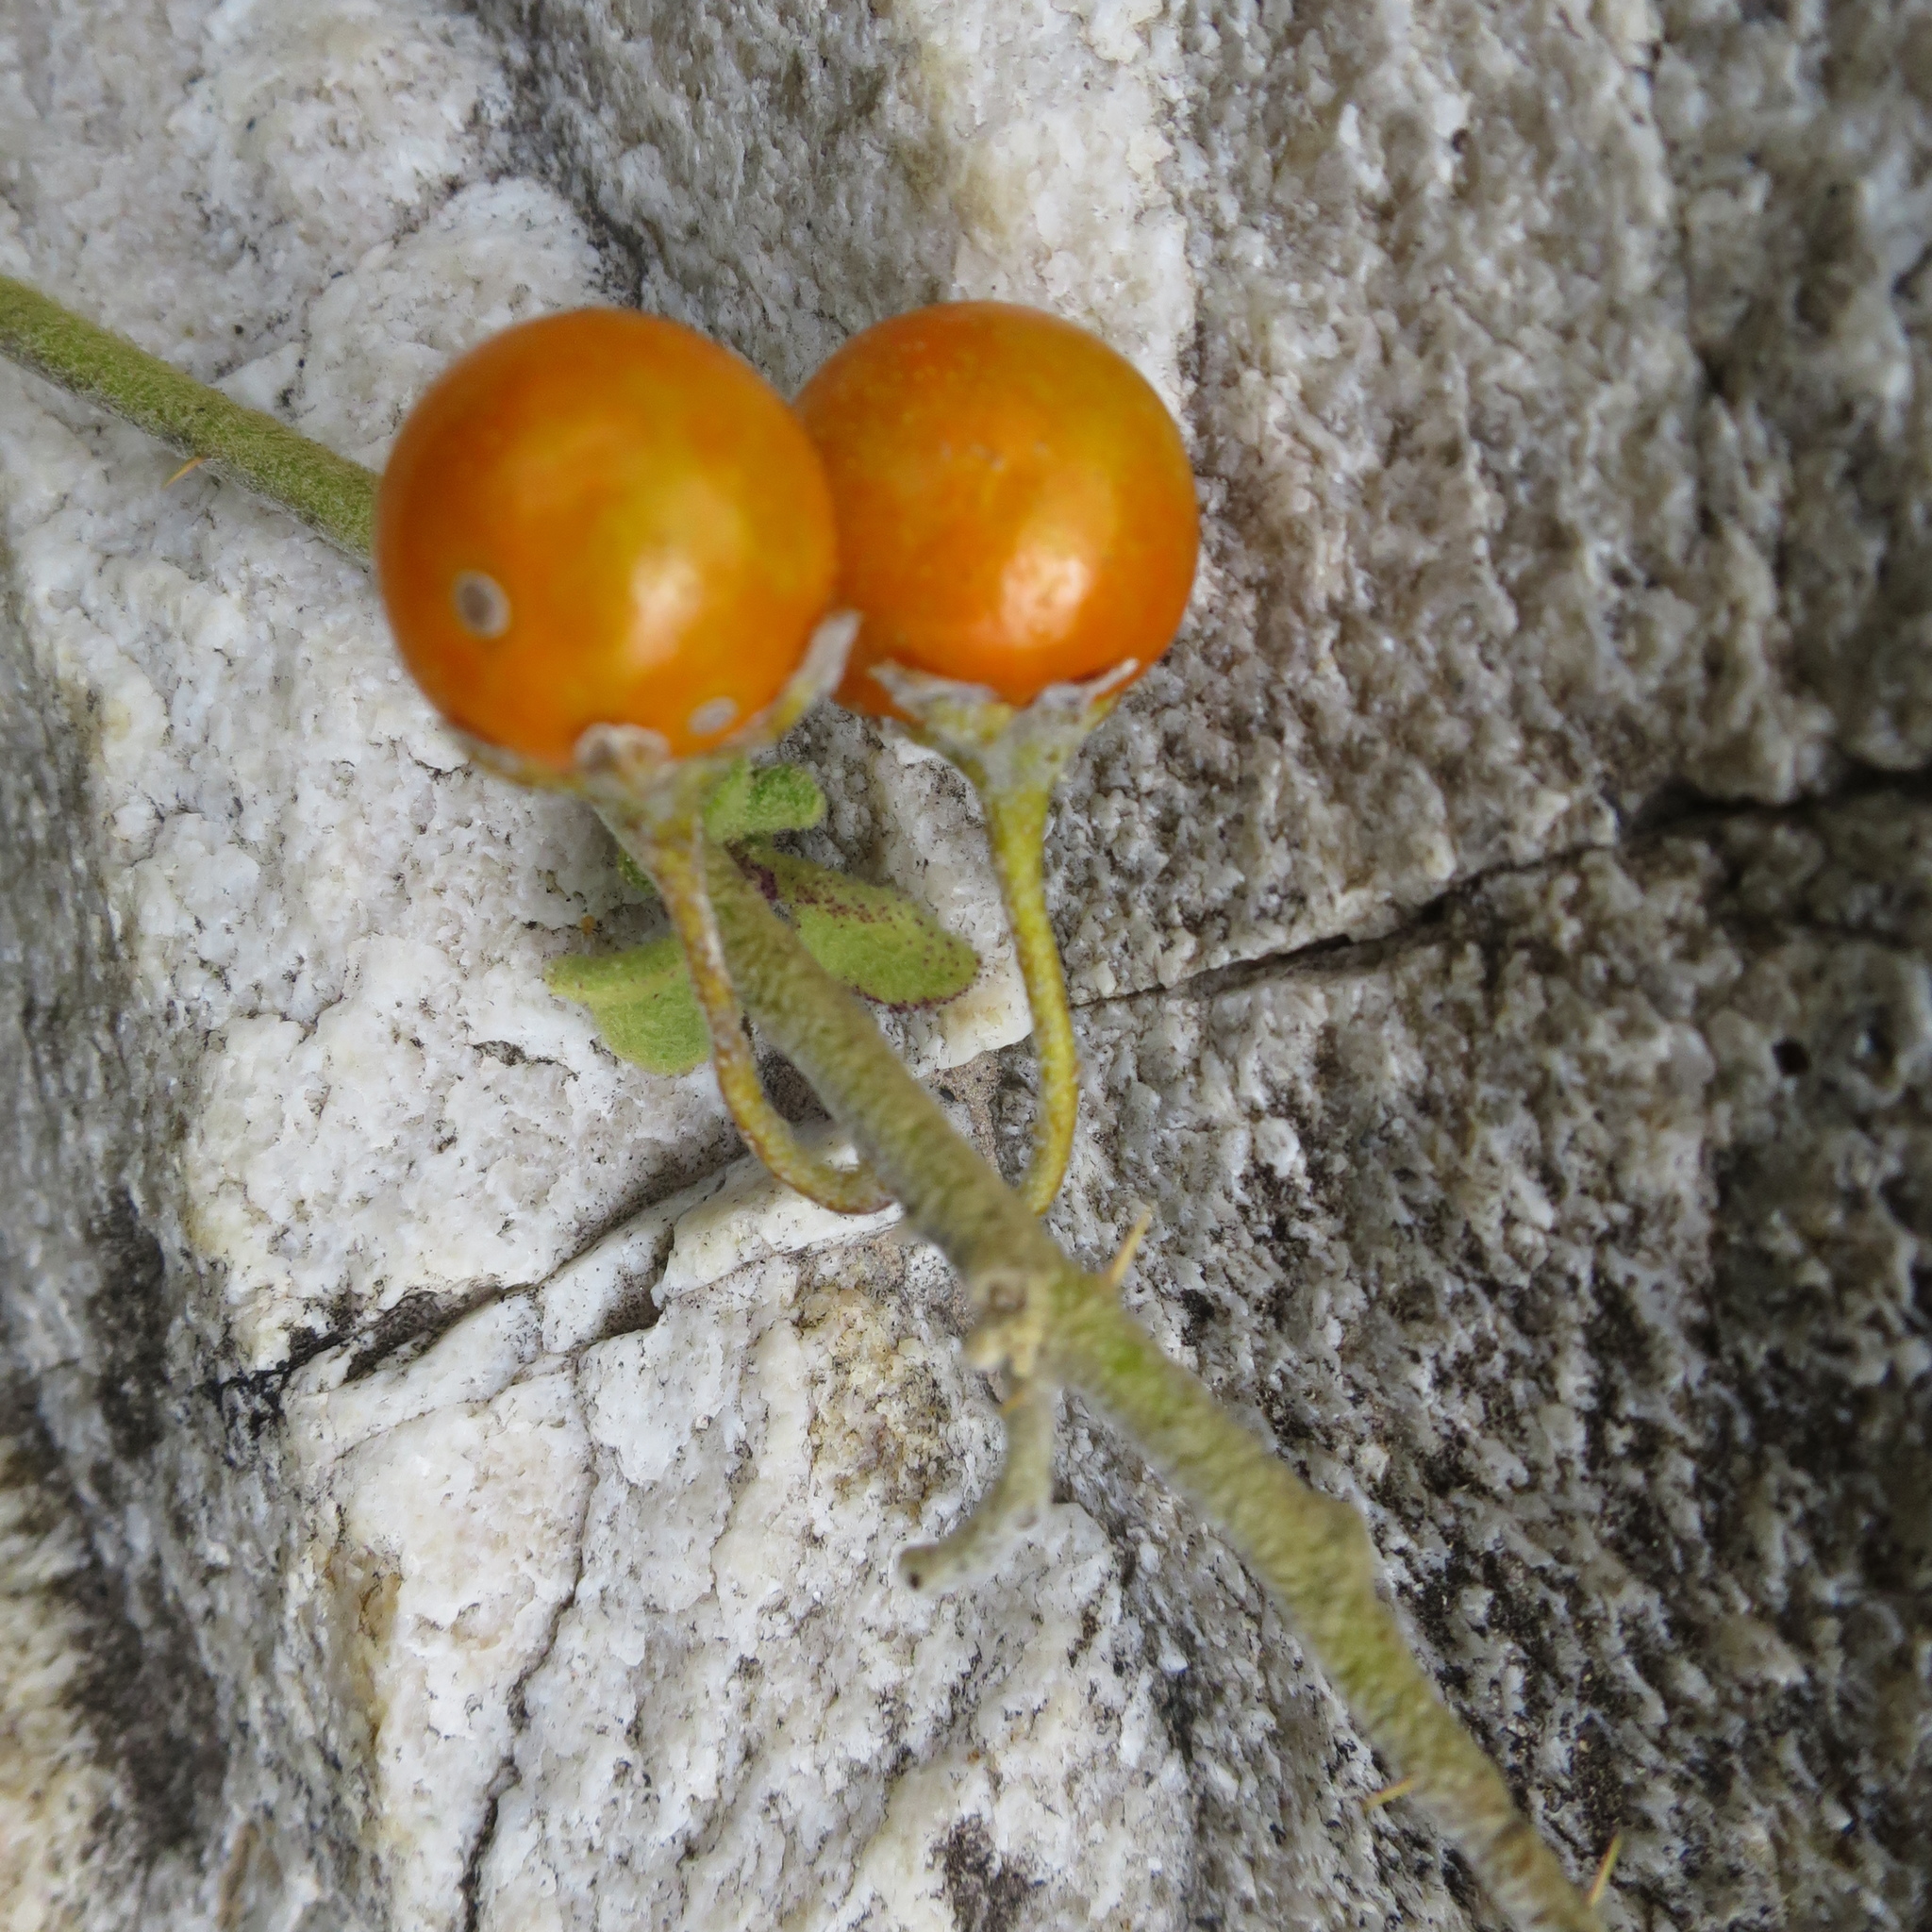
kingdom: Plantae
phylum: Tracheophyta
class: Magnoliopsida
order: Solanales
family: Solanaceae
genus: Solanum
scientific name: Solanum tomentosum
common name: Wild aubergine
